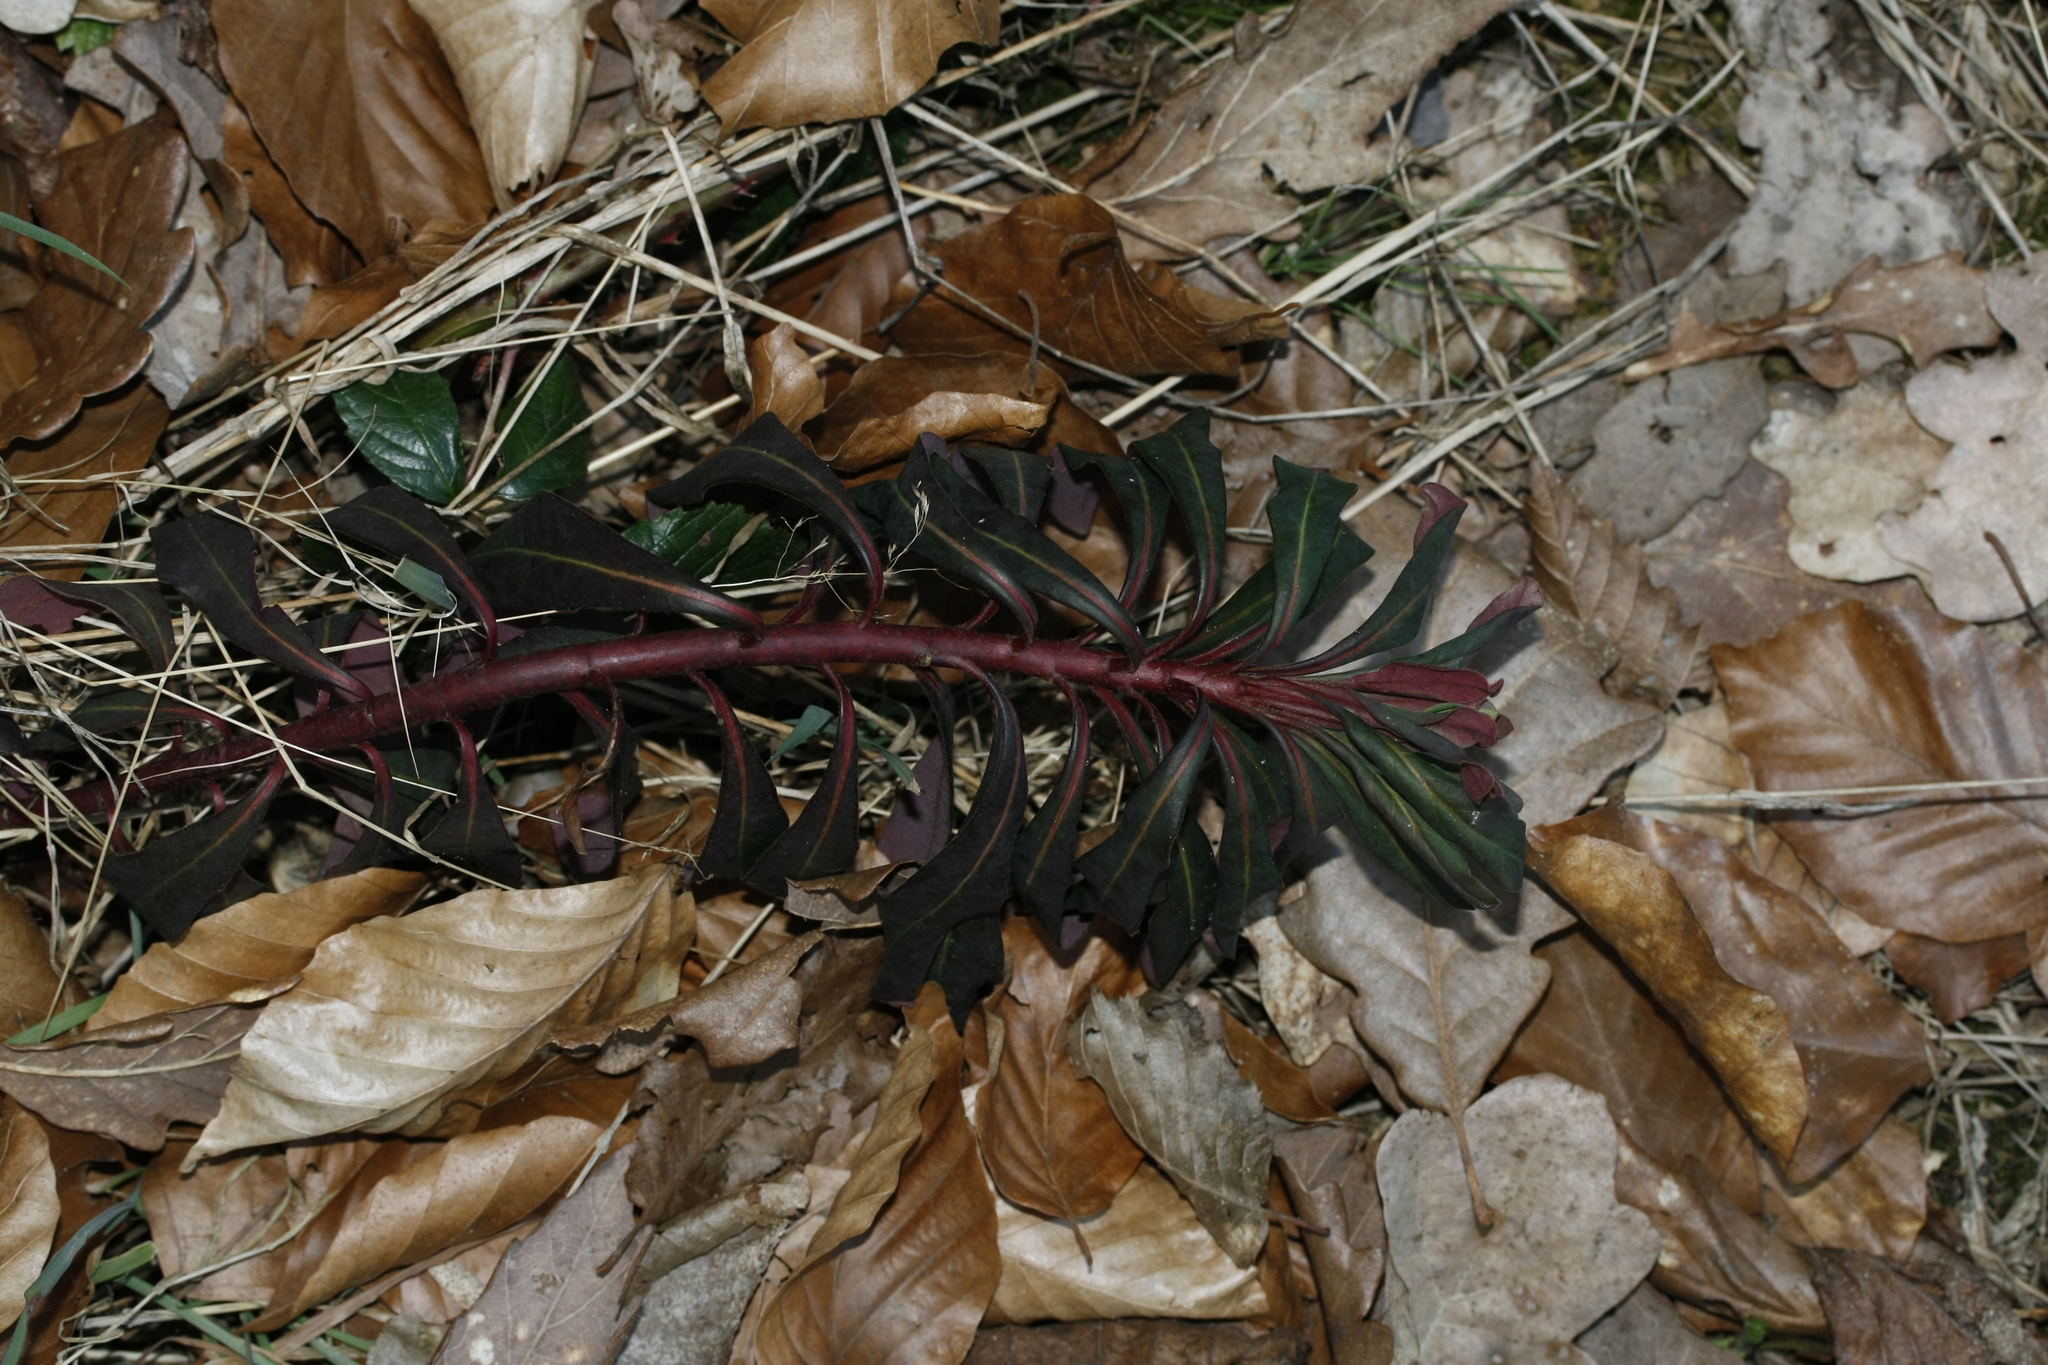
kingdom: Plantae
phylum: Tracheophyta
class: Magnoliopsida
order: Malpighiales
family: Euphorbiaceae
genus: Euphorbia
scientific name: Euphorbia amygdaloides
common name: Wood spurge
